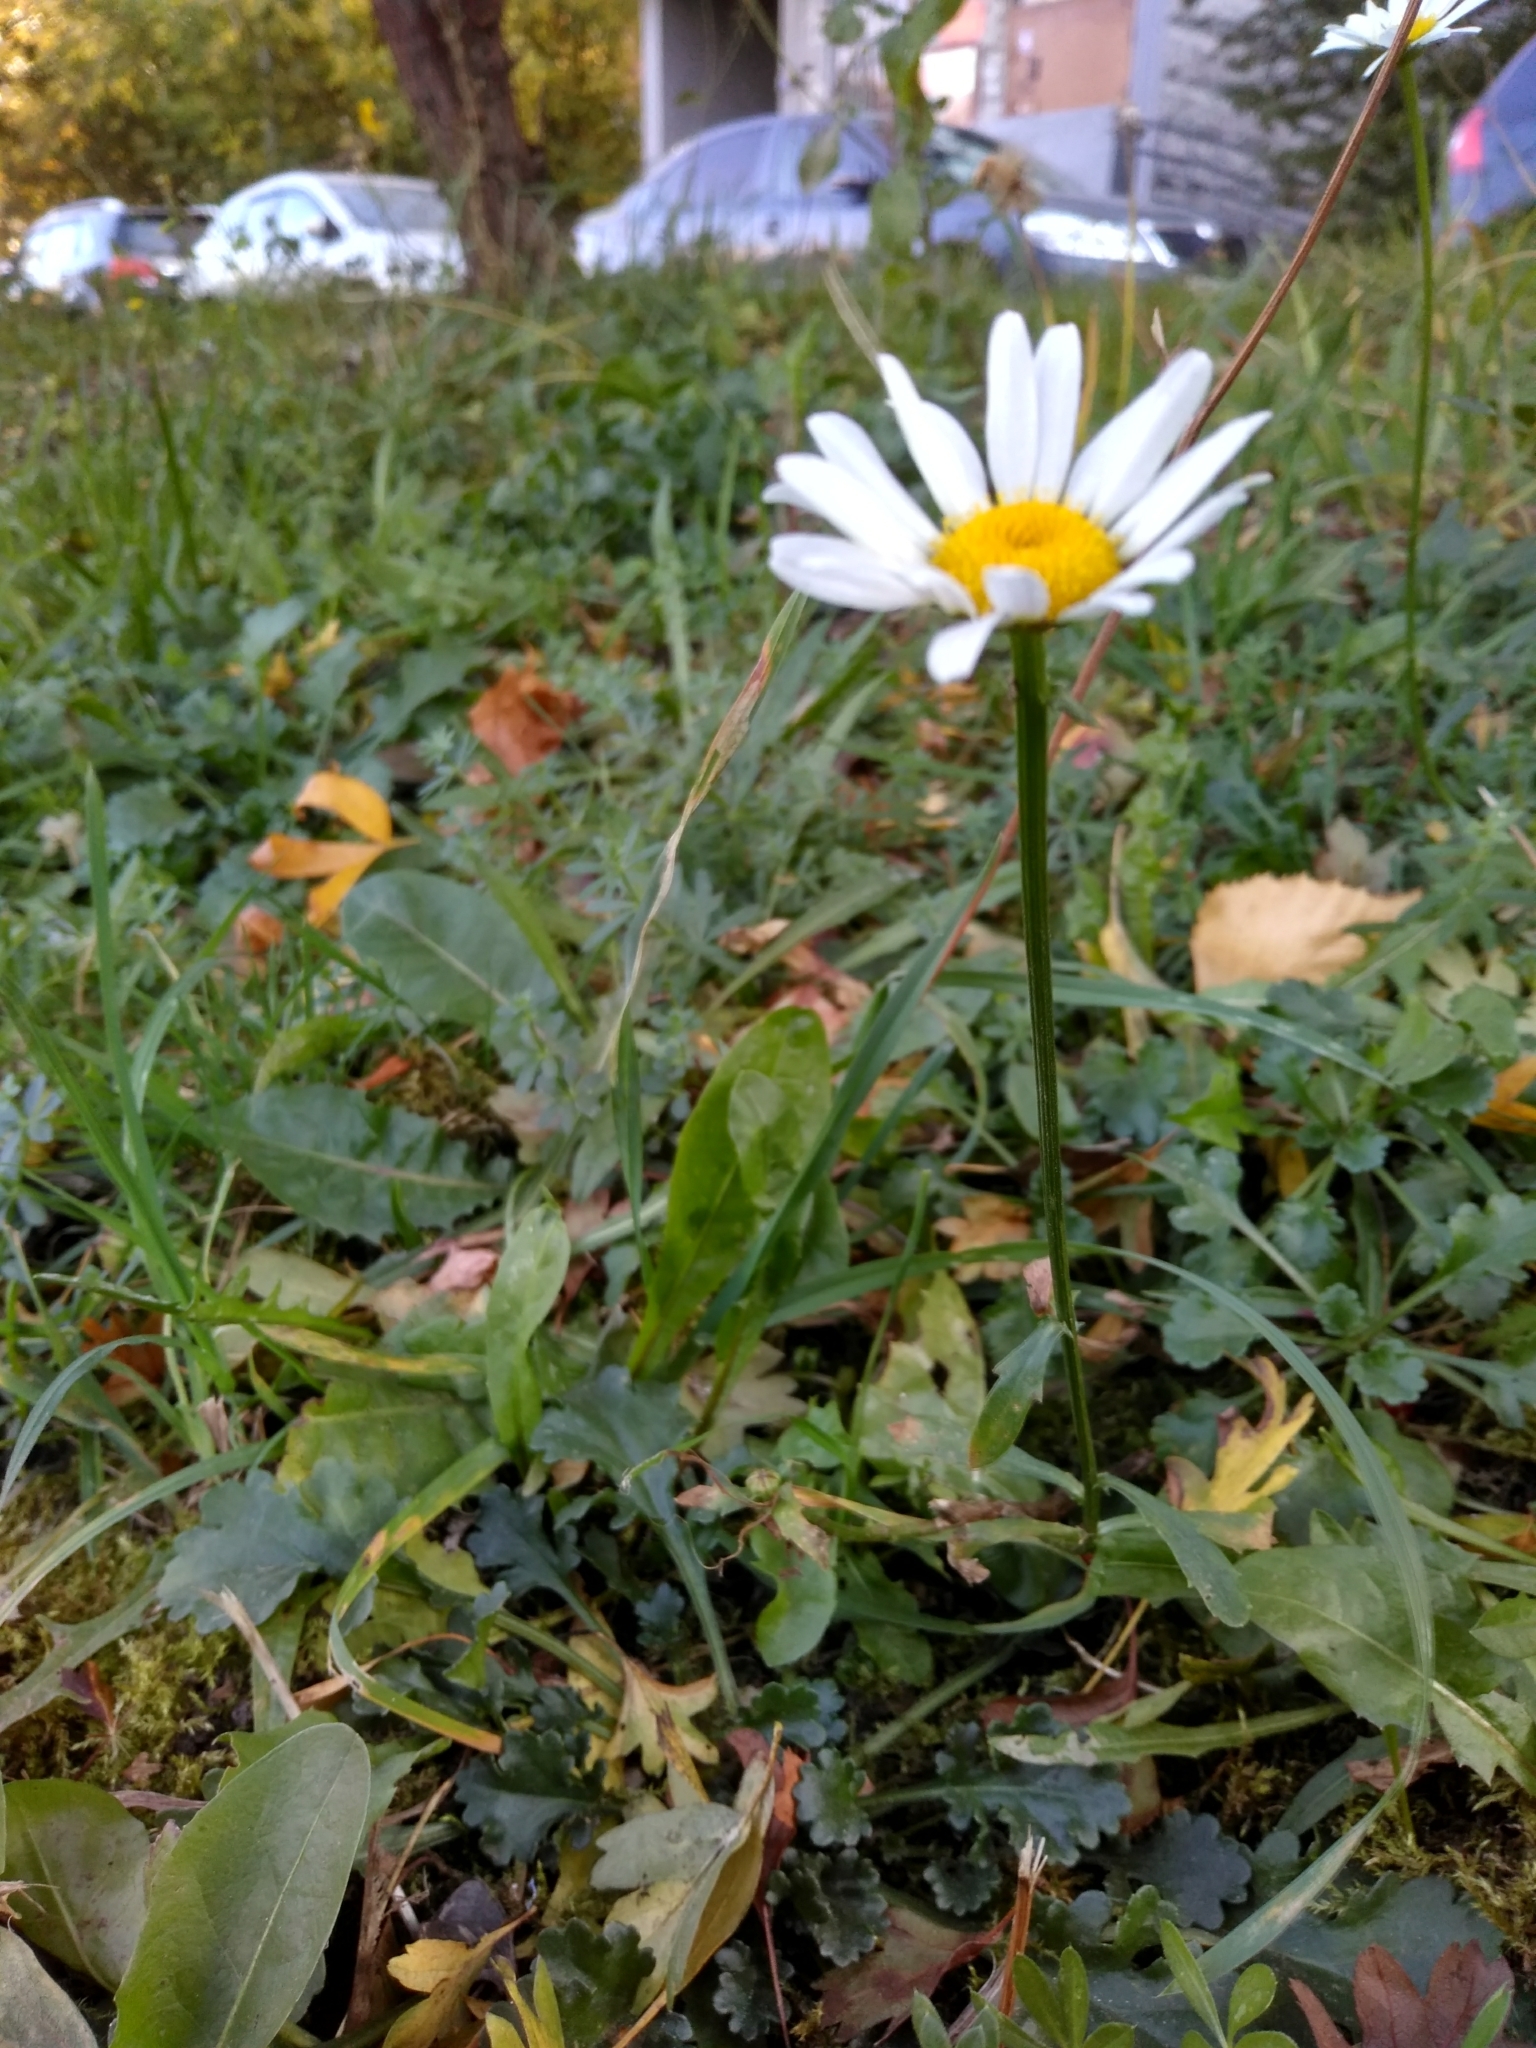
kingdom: Plantae
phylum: Tracheophyta
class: Magnoliopsida
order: Asterales
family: Asteraceae
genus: Leucanthemum
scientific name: Leucanthemum vulgare
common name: Oxeye daisy
